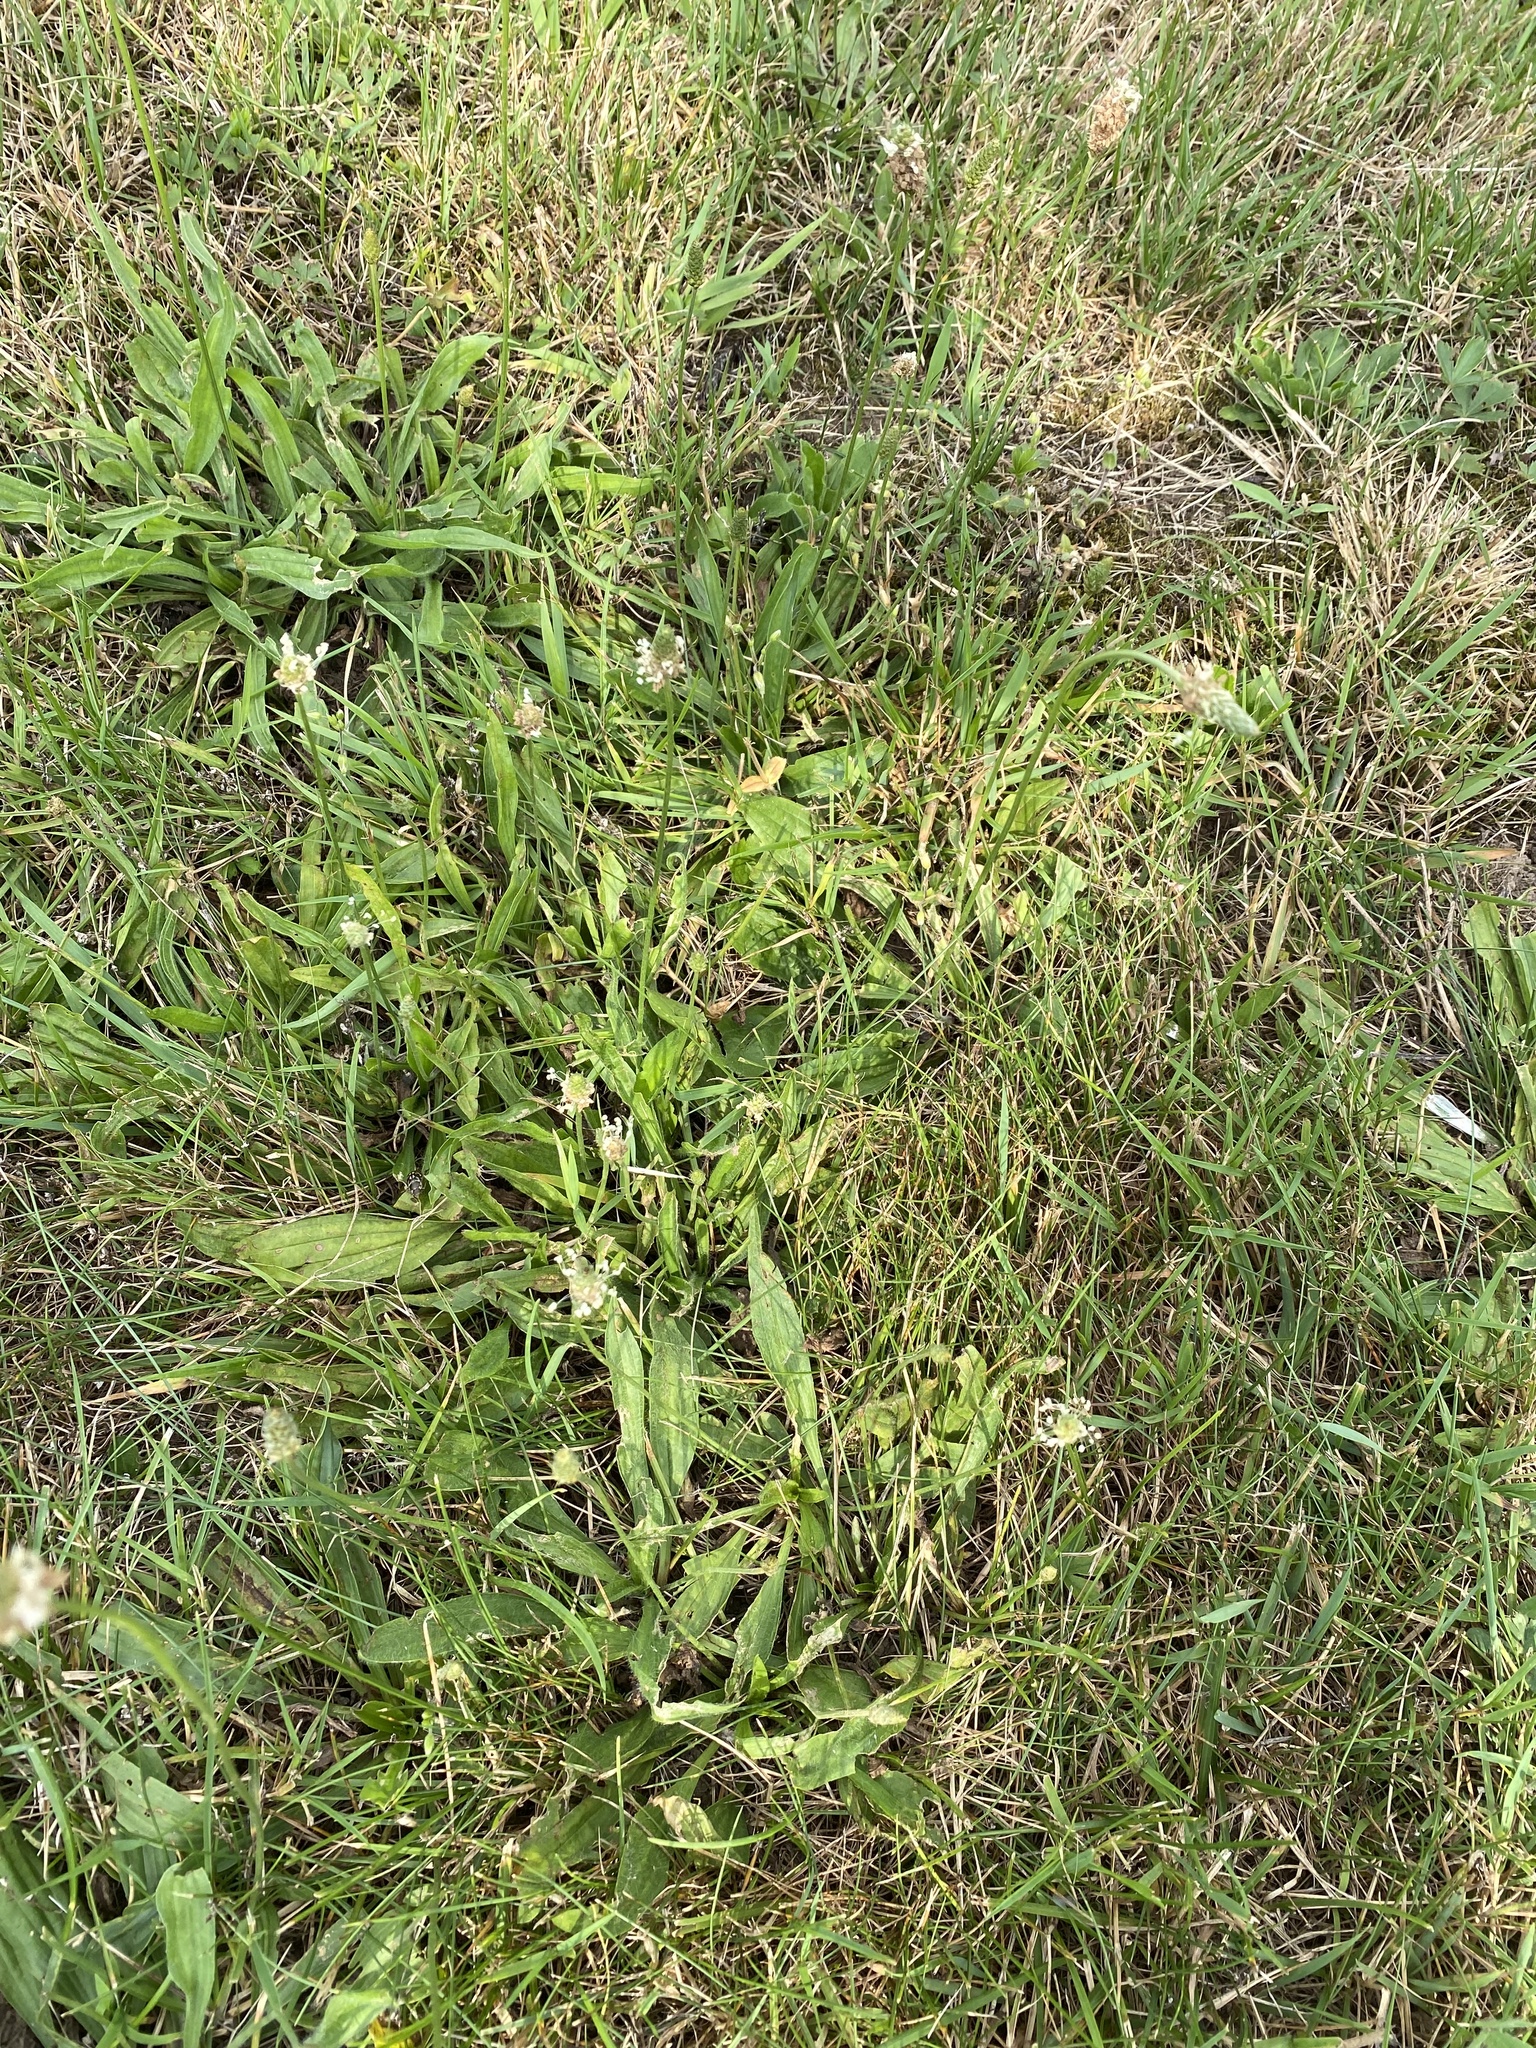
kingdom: Plantae
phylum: Tracheophyta
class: Magnoliopsida
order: Lamiales
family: Plantaginaceae
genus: Plantago
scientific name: Plantago lanceolata
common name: Ribwort plantain
